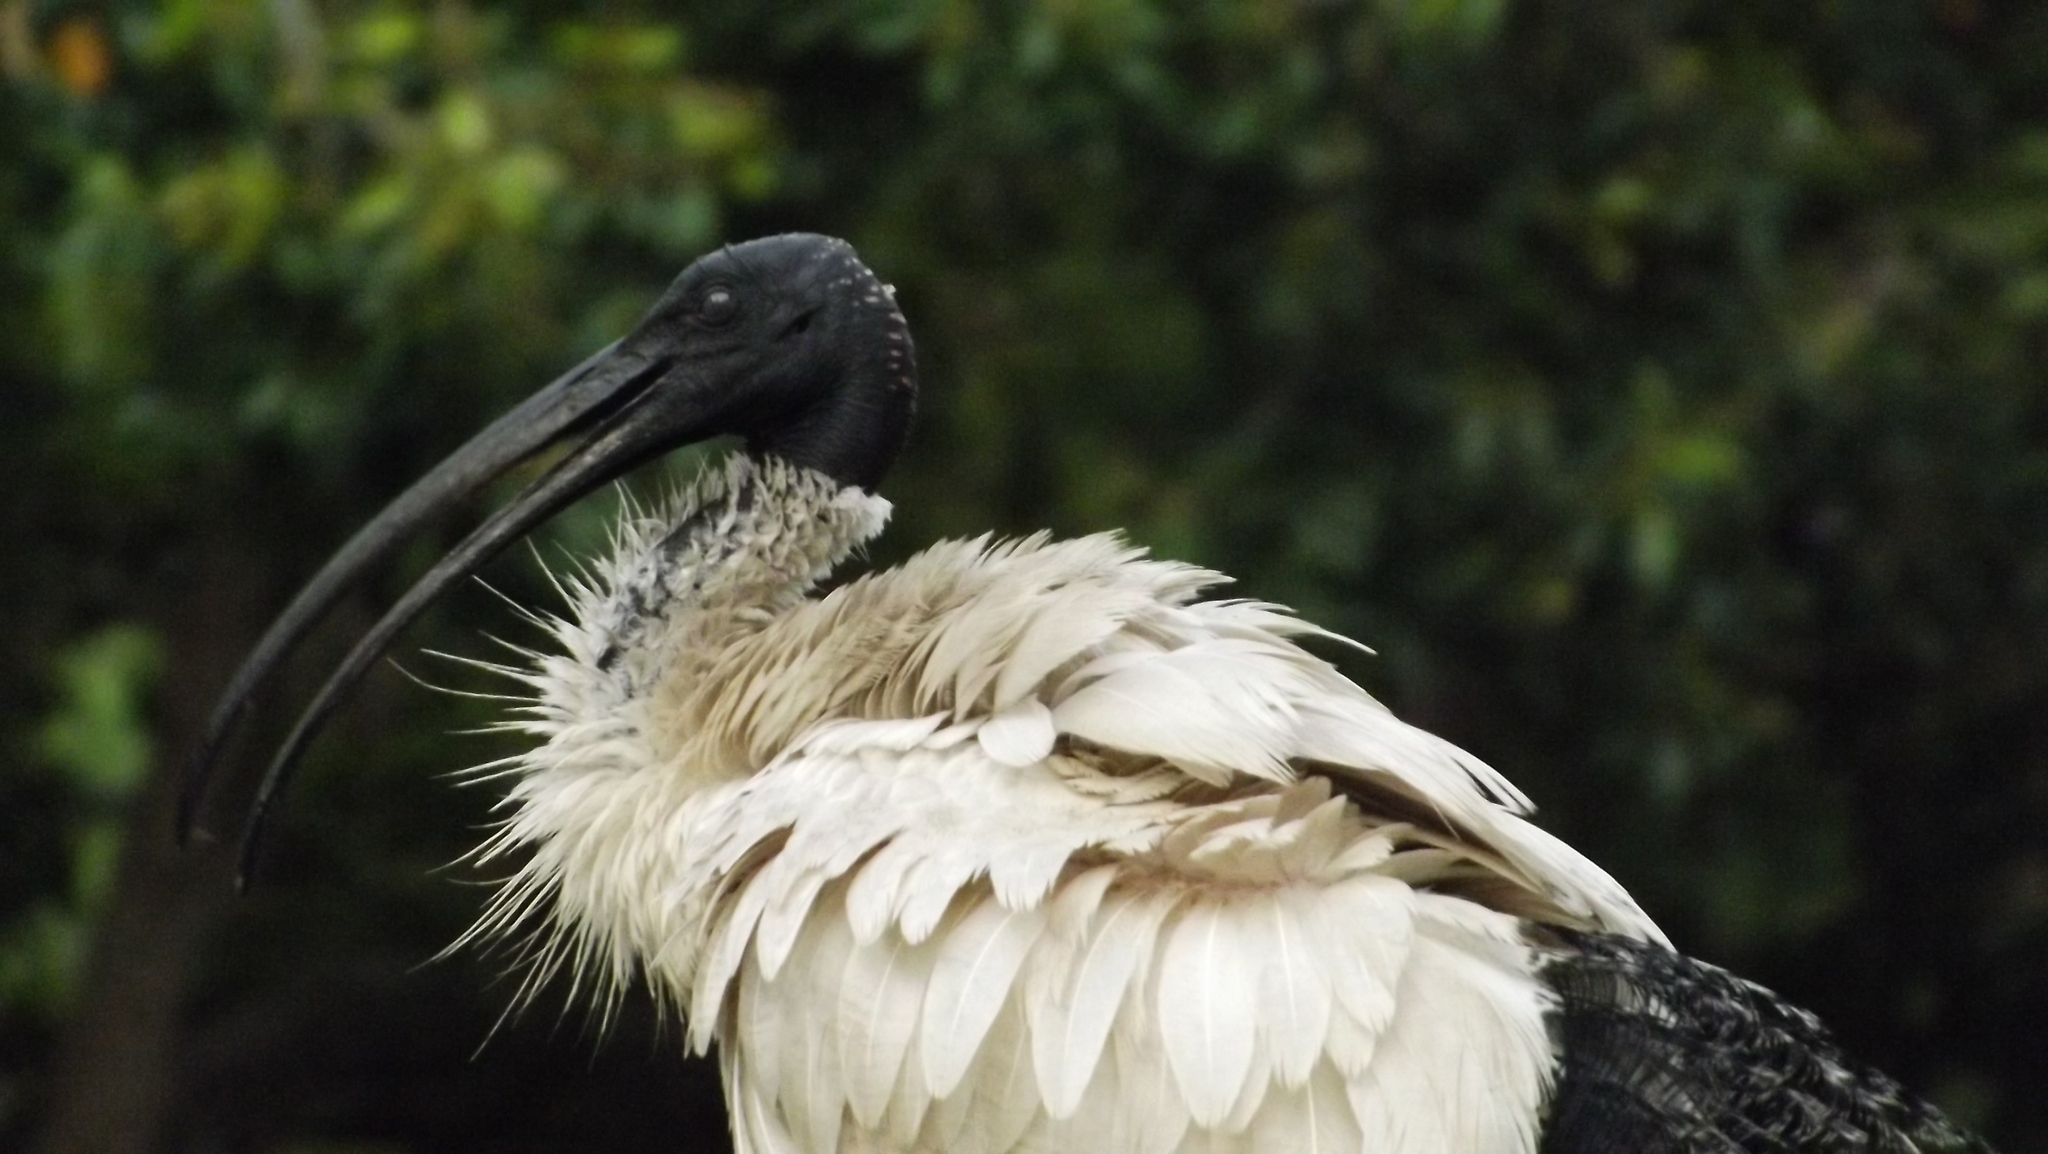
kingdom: Animalia
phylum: Chordata
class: Aves
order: Pelecaniformes
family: Threskiornithidae
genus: Threskiornis
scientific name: Threskiornis molucca
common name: Australian white ibis
